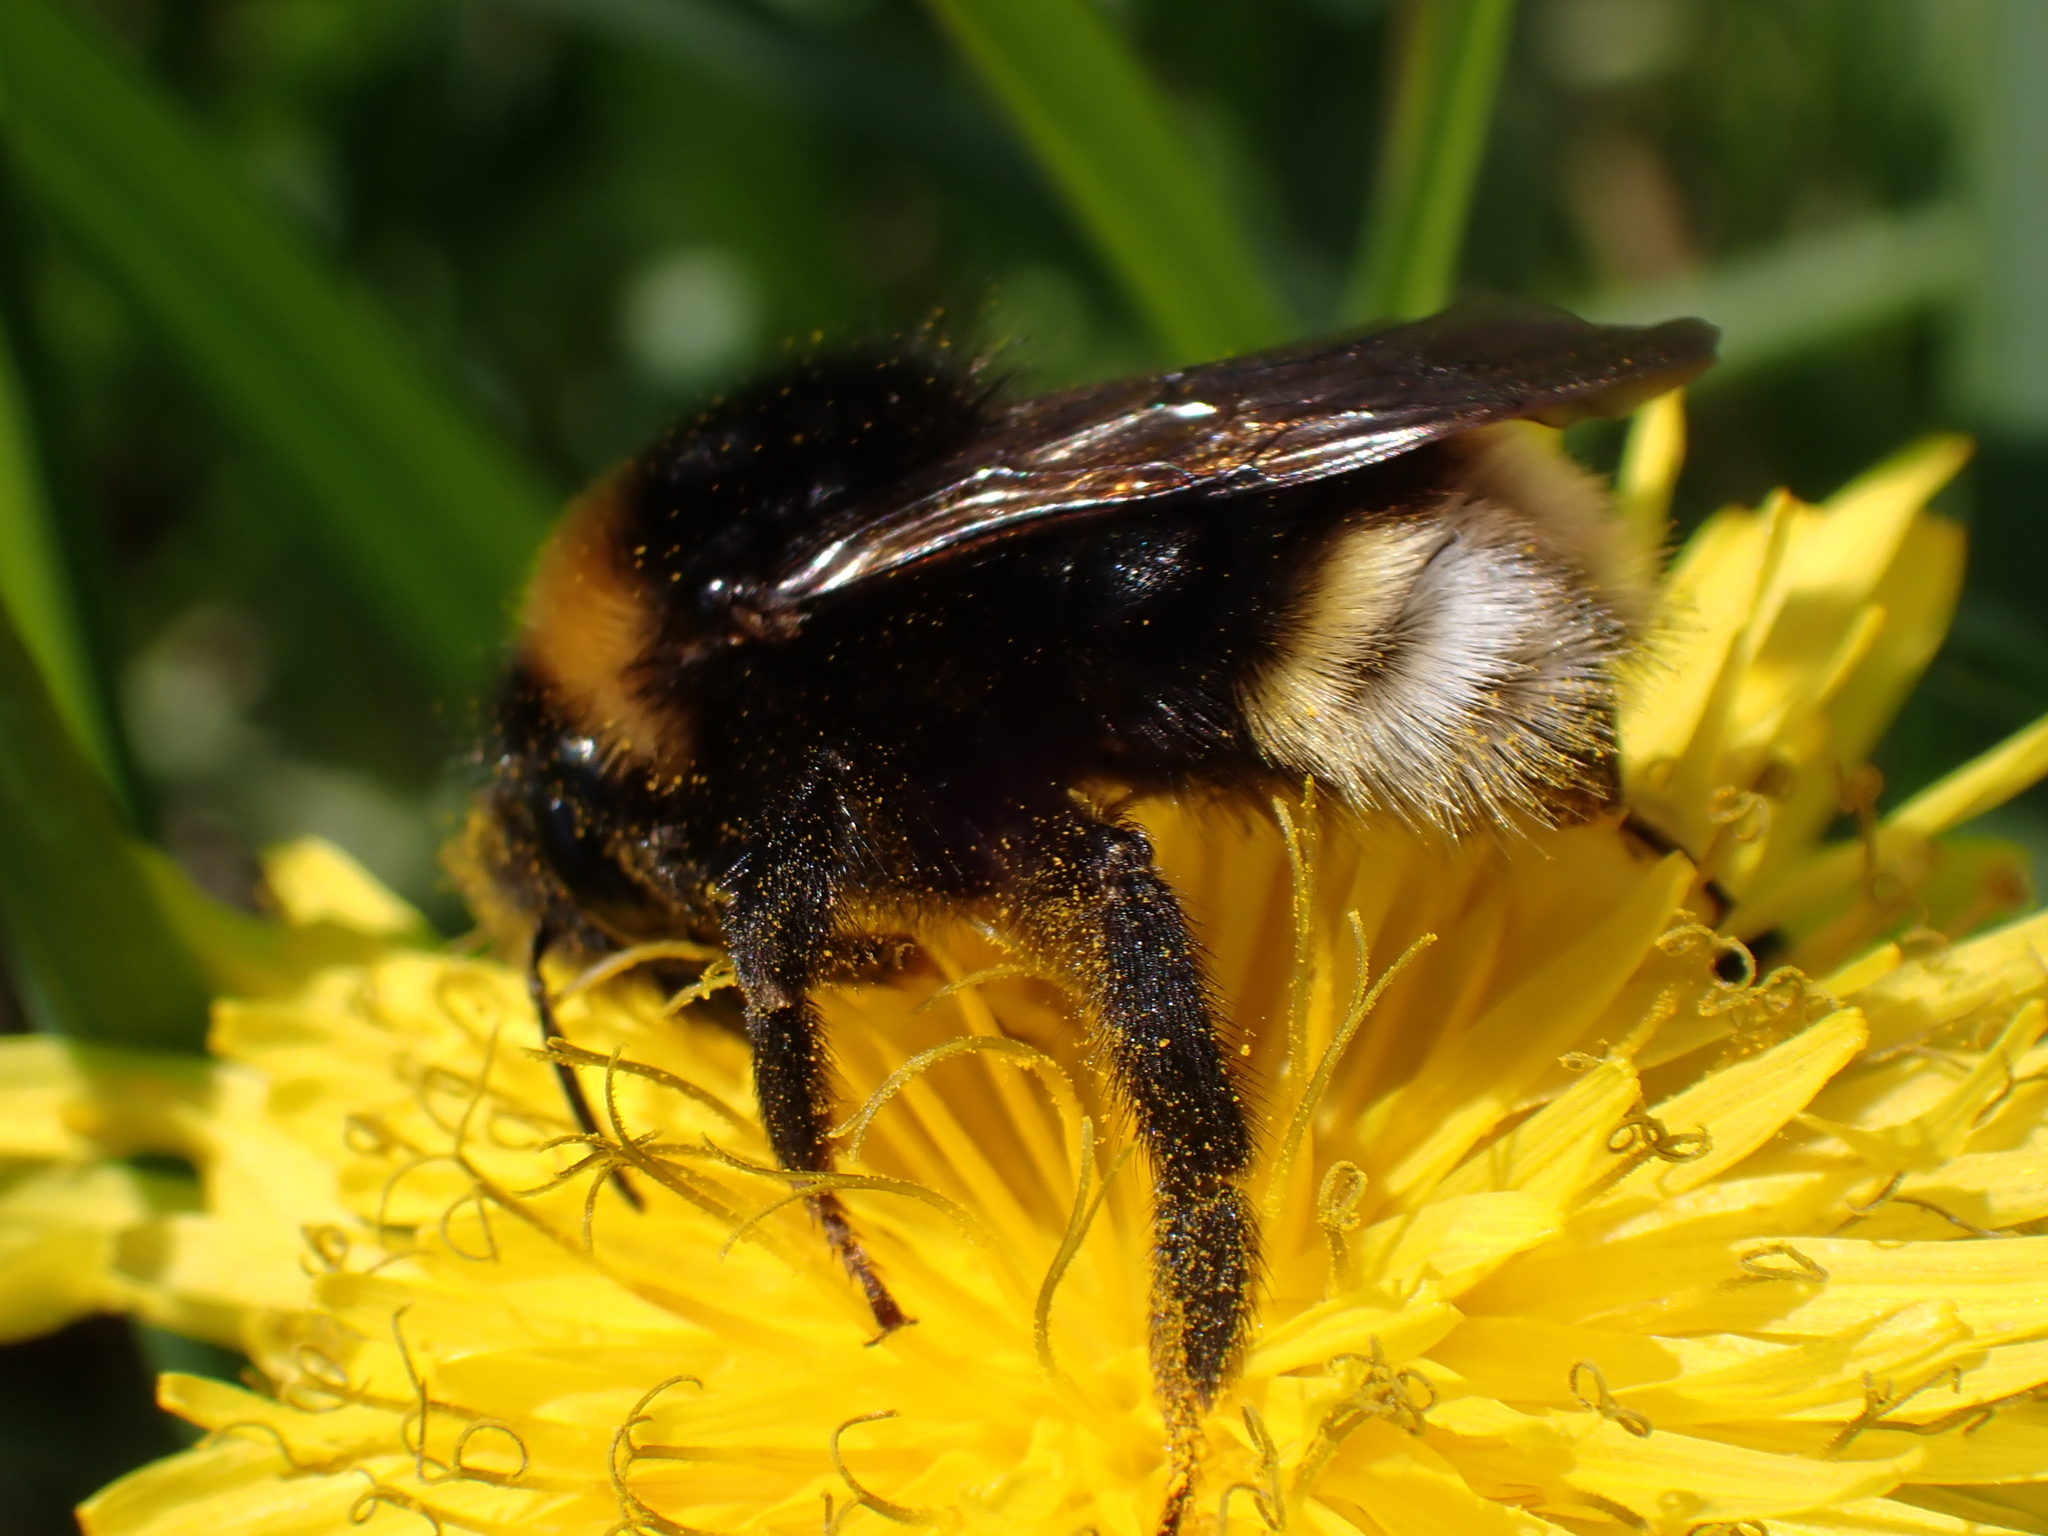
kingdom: Animalia
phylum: Arthropoda
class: Insecta
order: Hymenoptera
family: Apidae
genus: Bombus
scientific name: Bombus vestalis
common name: Vestal cuckoo bee
